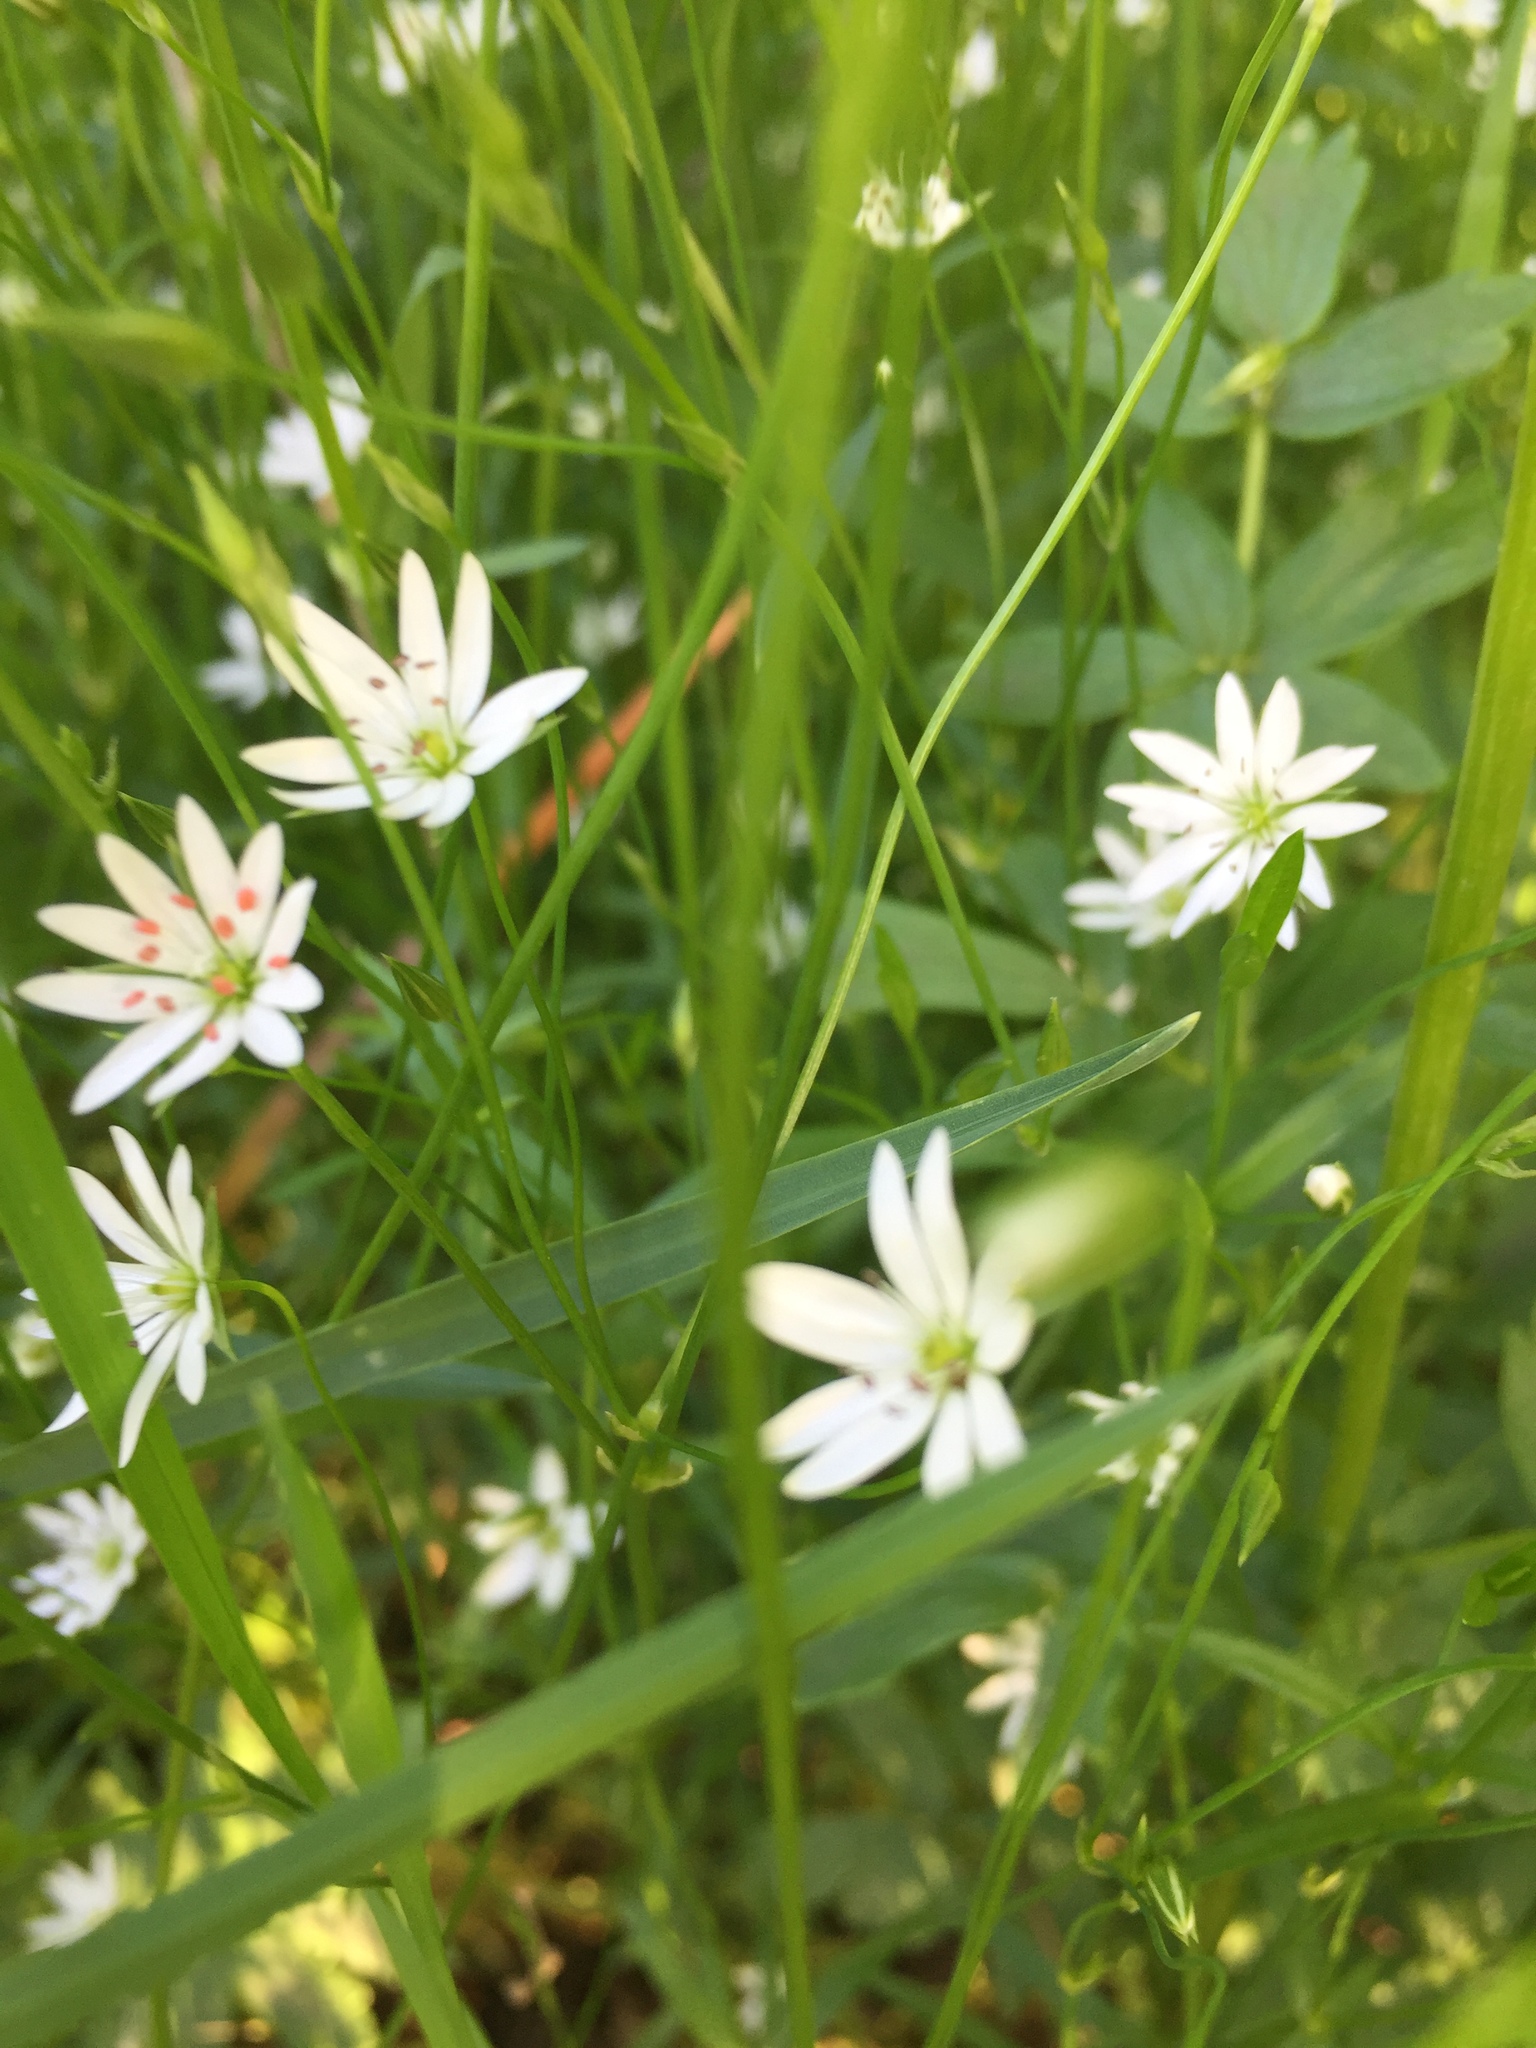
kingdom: Plantae
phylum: Tracheophyta
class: Magnoliopsida
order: Caryophyllales
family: Caryophyllaceae
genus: Stellaria
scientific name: Stellaria graminea
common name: Grass-like starwort
